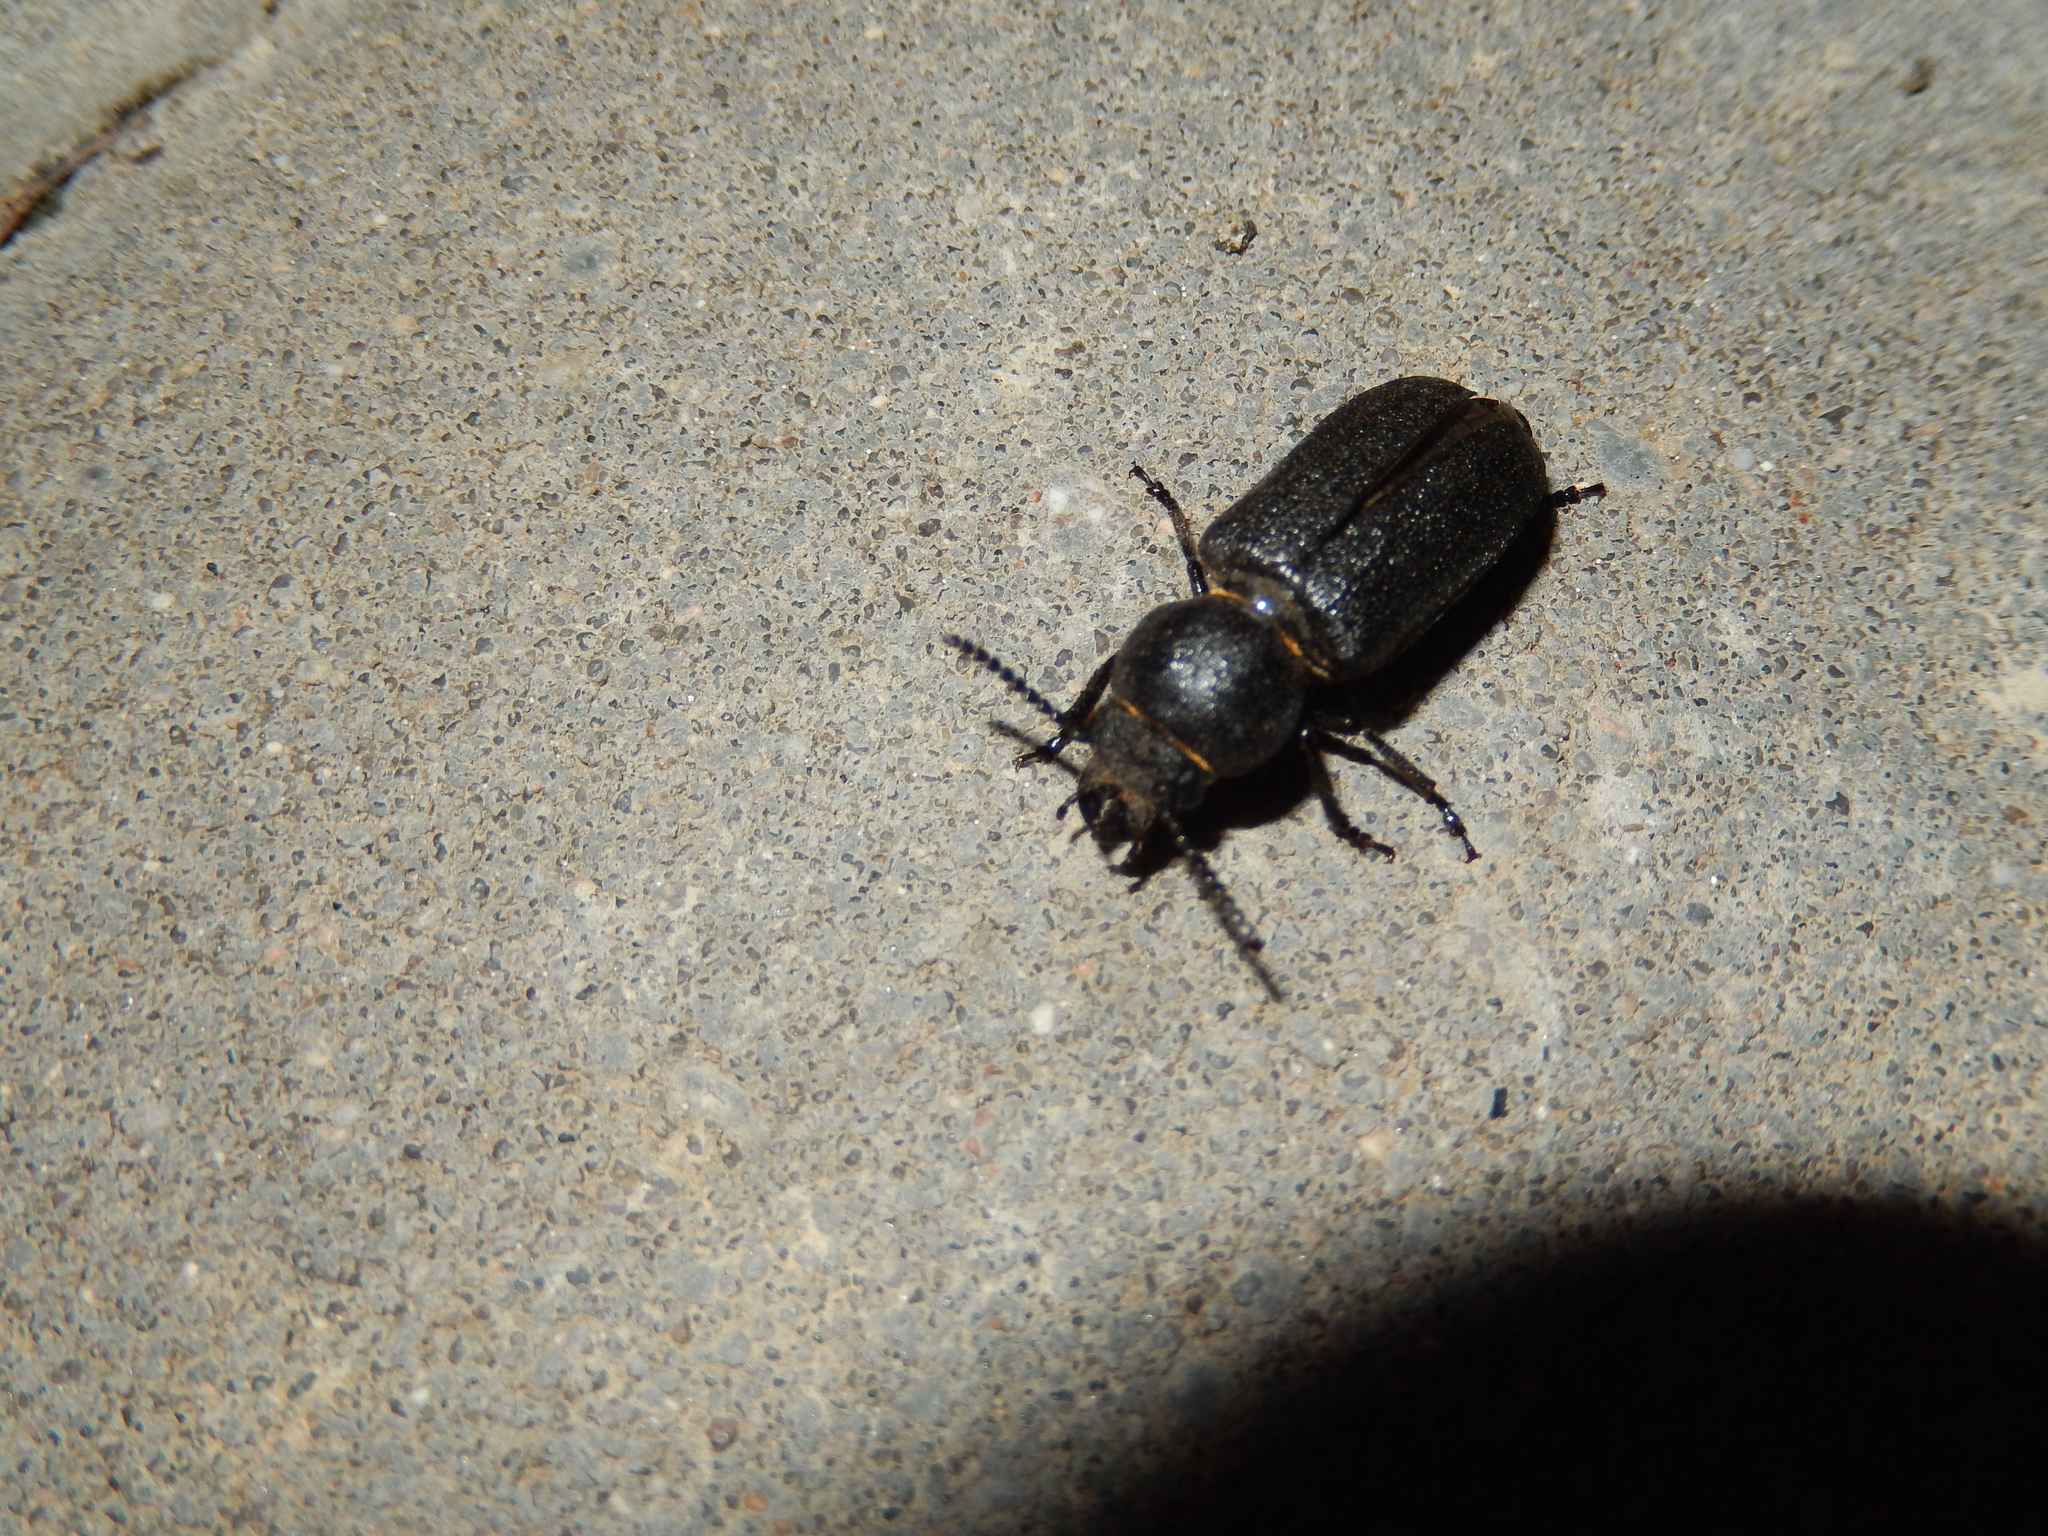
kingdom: Animalia
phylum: Arthropoda
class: Insecta
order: Coleoptera
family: Cerambycidae
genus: Spondylis
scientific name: Spondylis buprestoides
